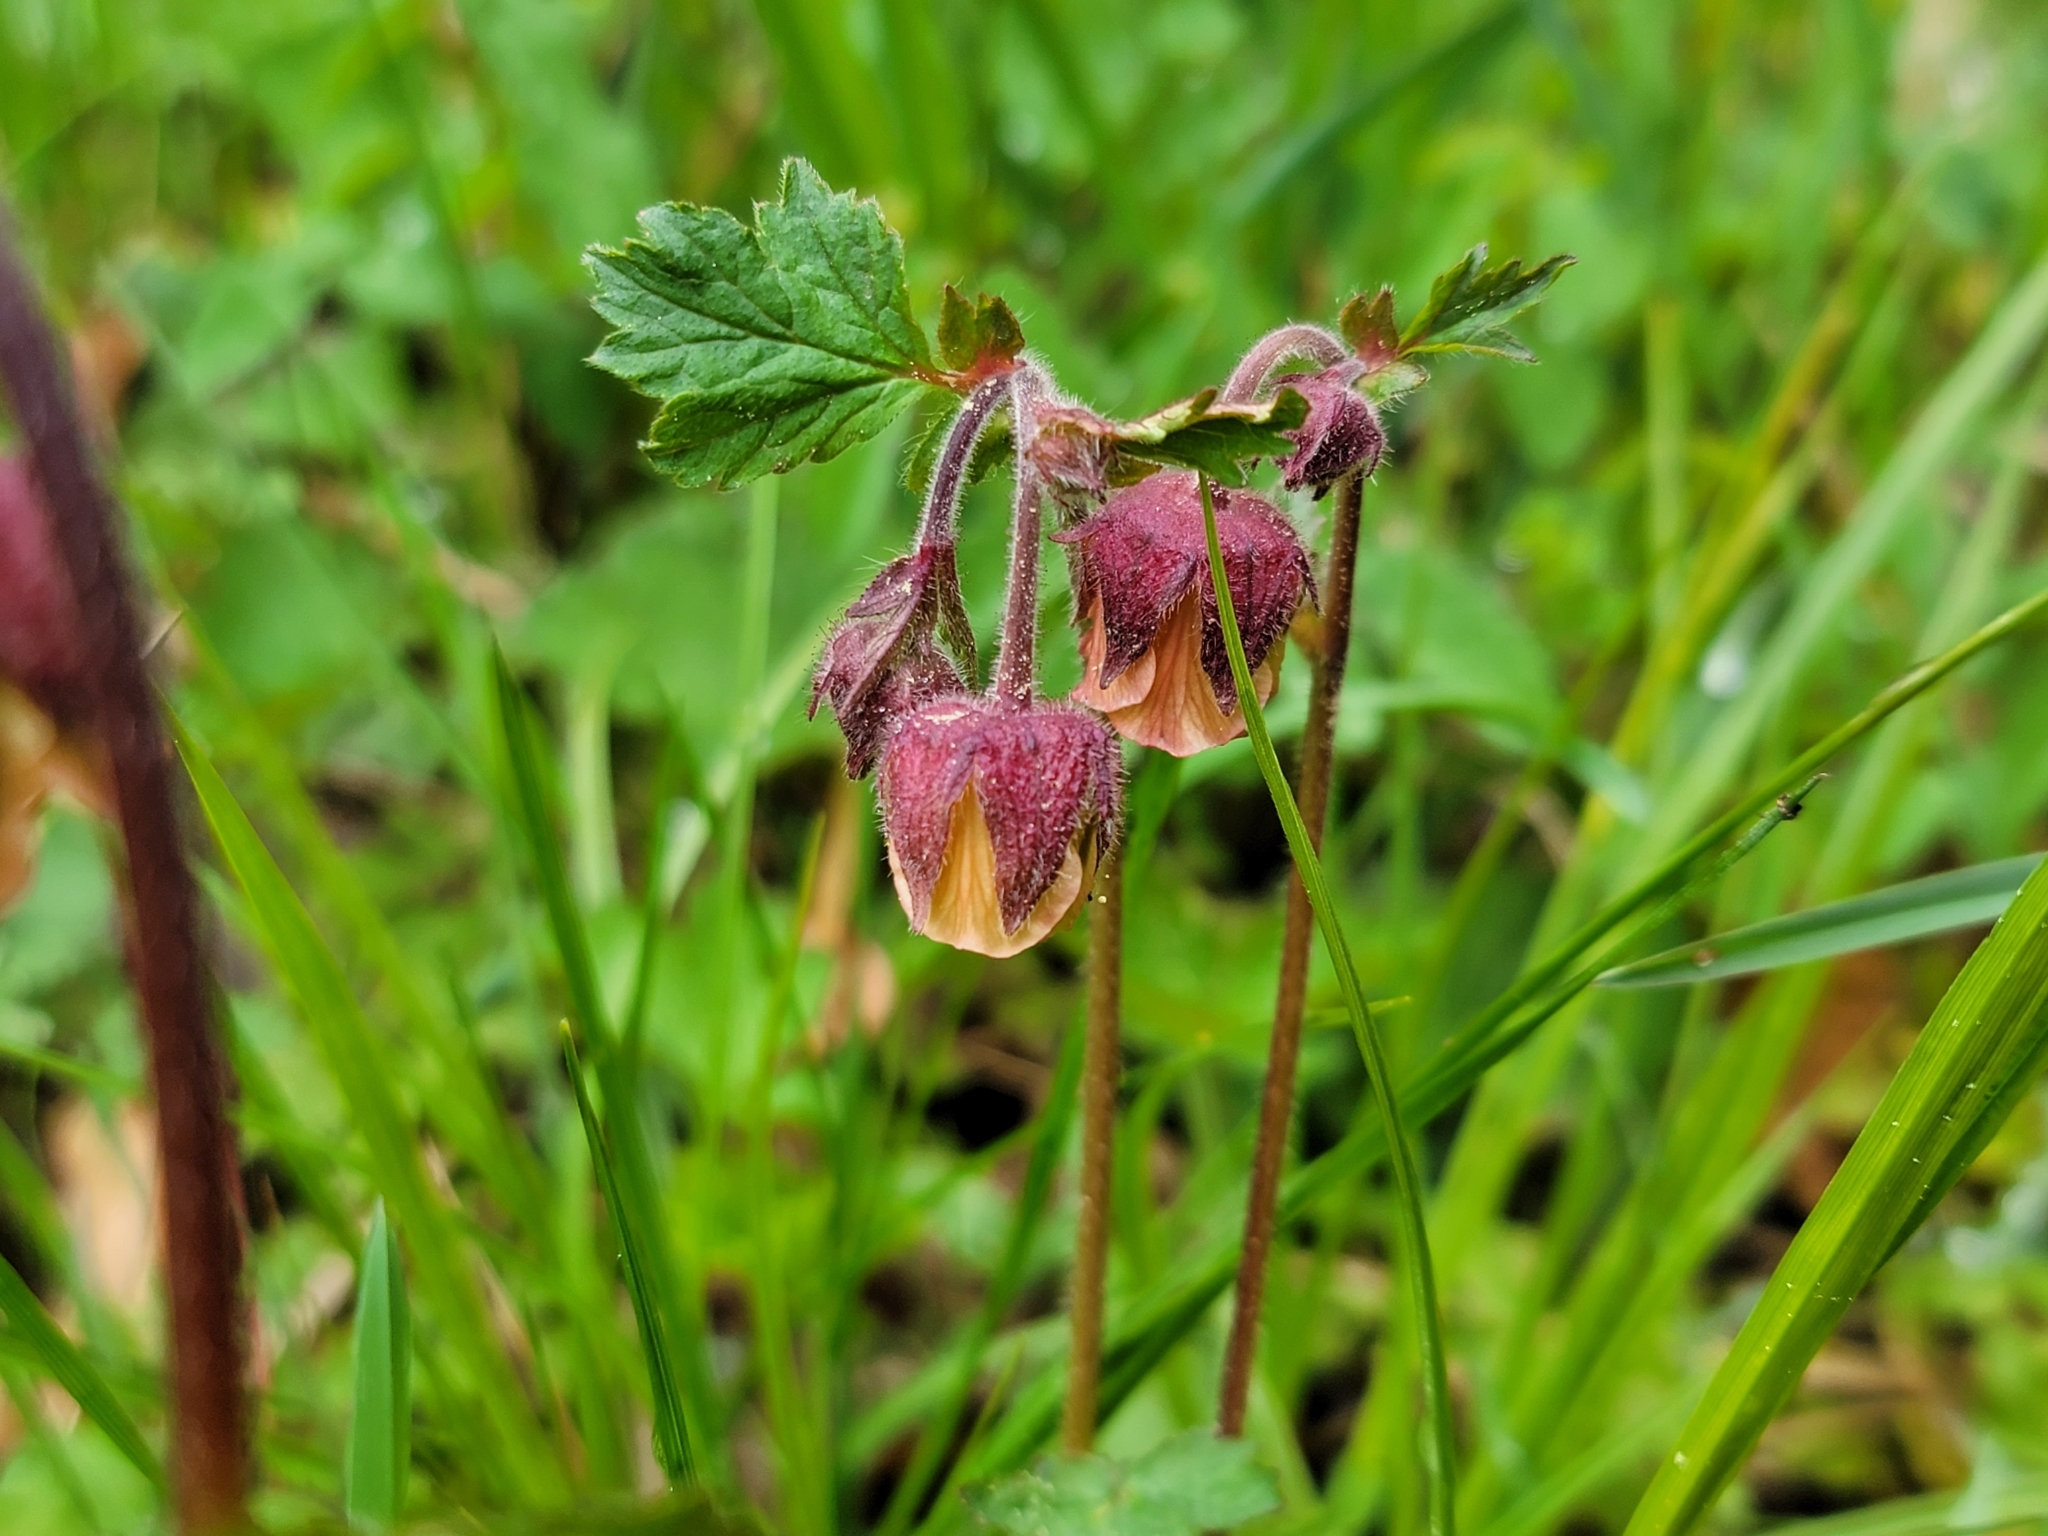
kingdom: Plantae
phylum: Tracheophyta
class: Magnoliopsida
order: Rosales
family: Rosaceae
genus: Geum
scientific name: Geum rivale
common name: Water avens
